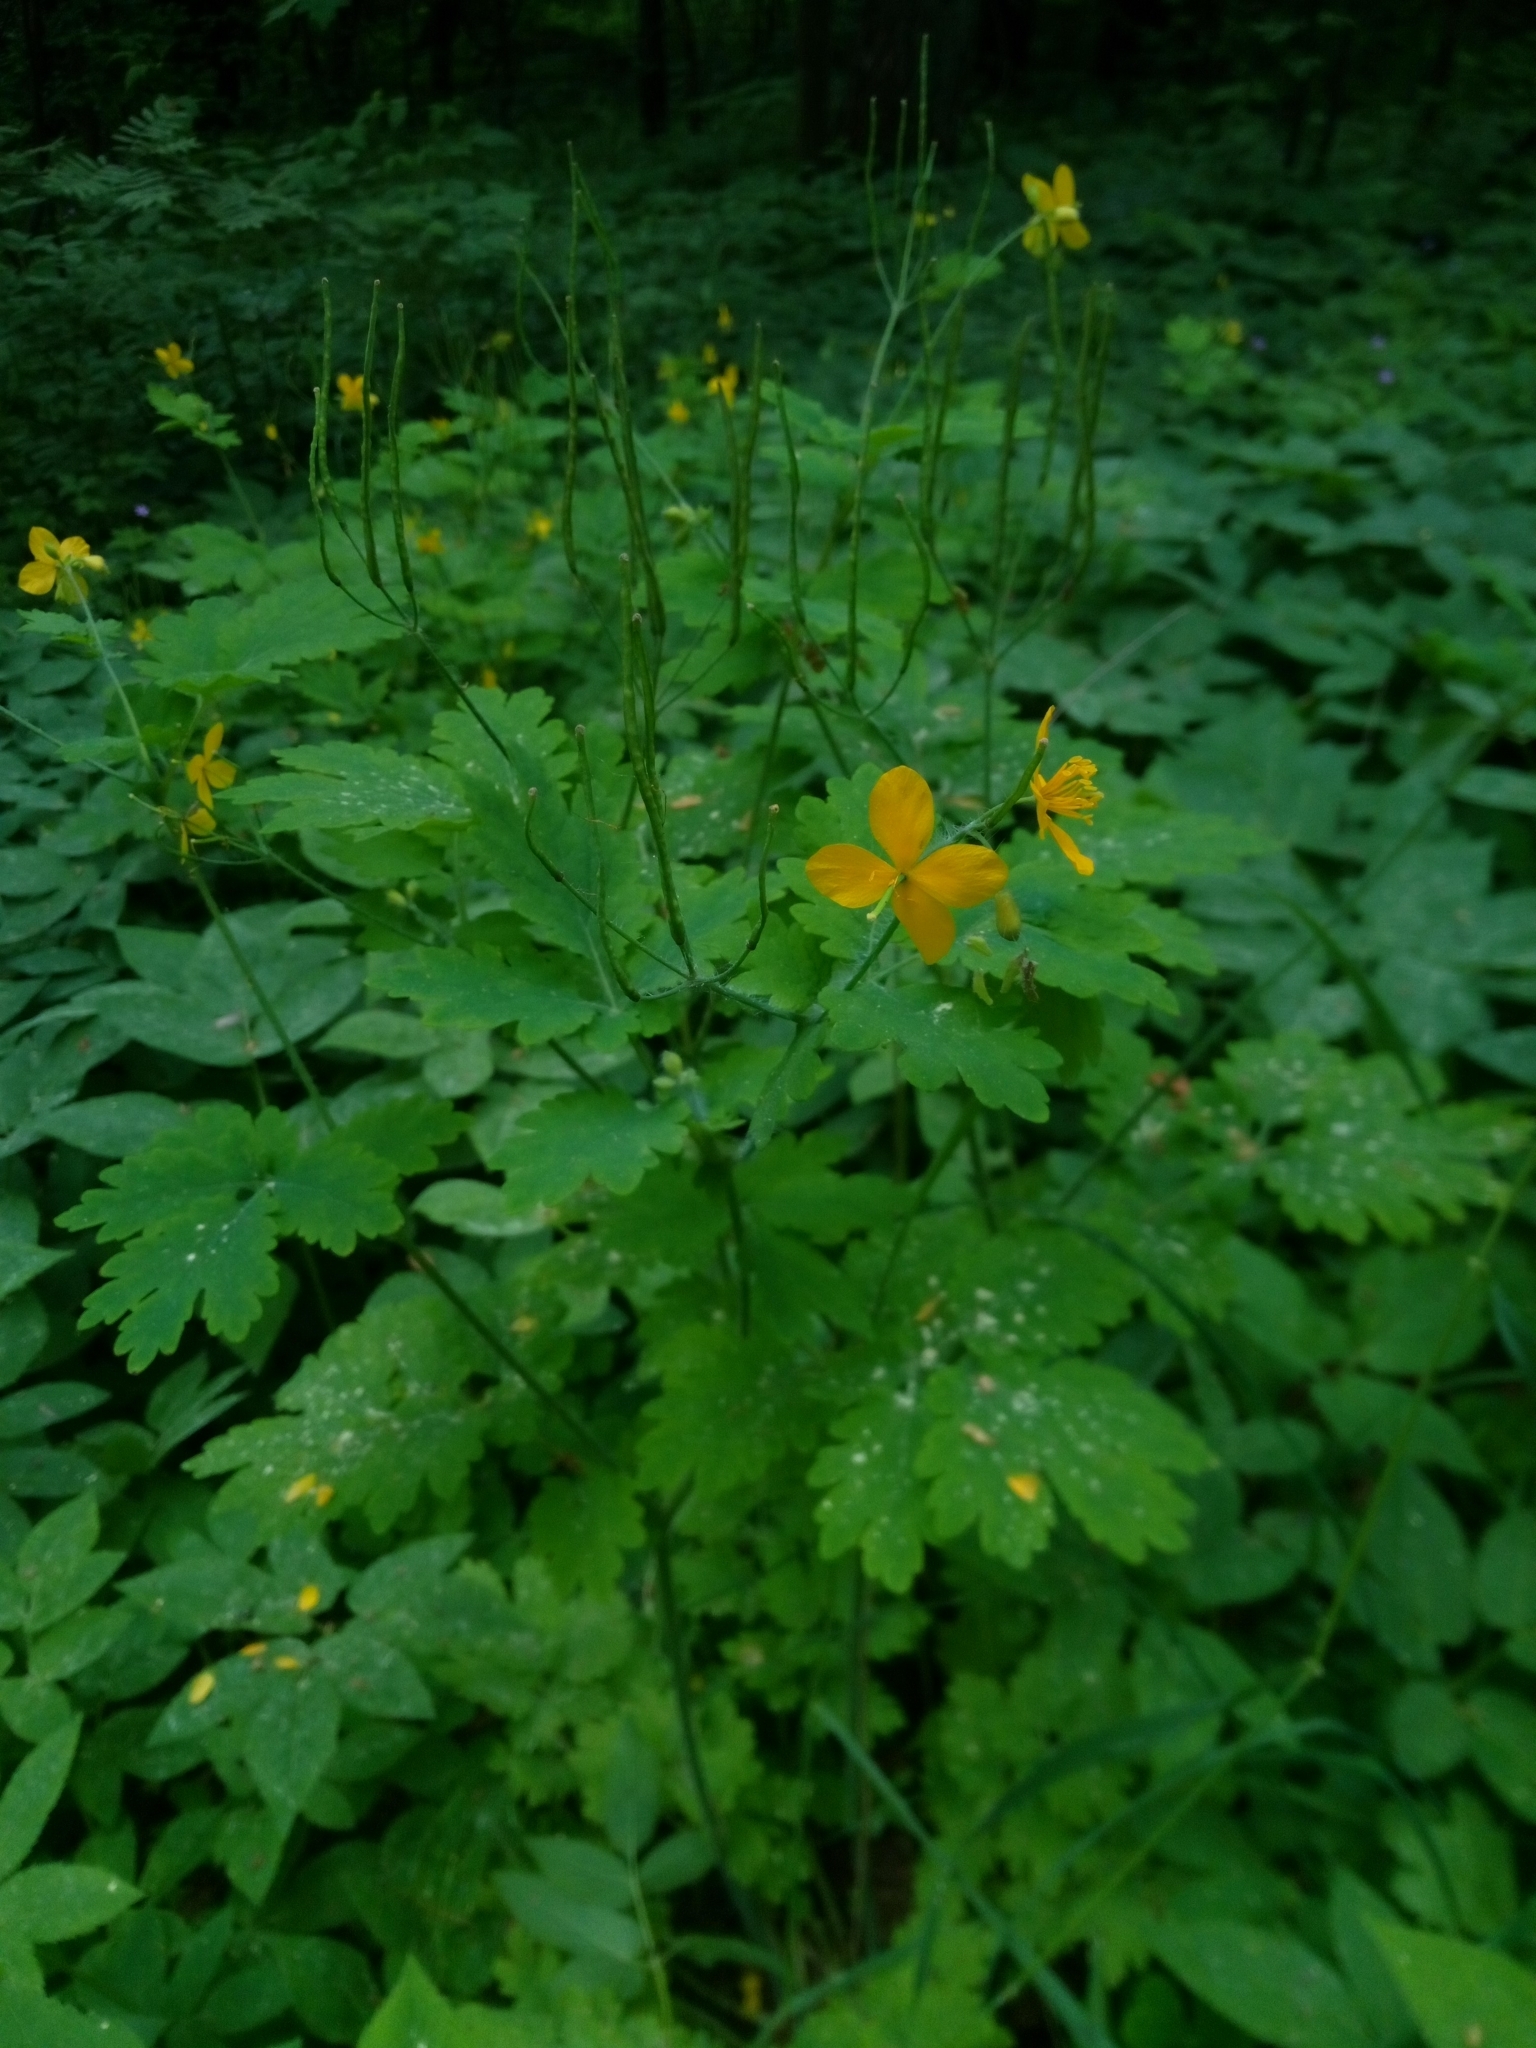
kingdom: Plantae
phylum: Tracheophyta
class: Magnoliopsida
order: Ranunculales
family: Papaveraceae
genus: Chelidonium
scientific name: Chelidonium majus
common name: Greater celandine
